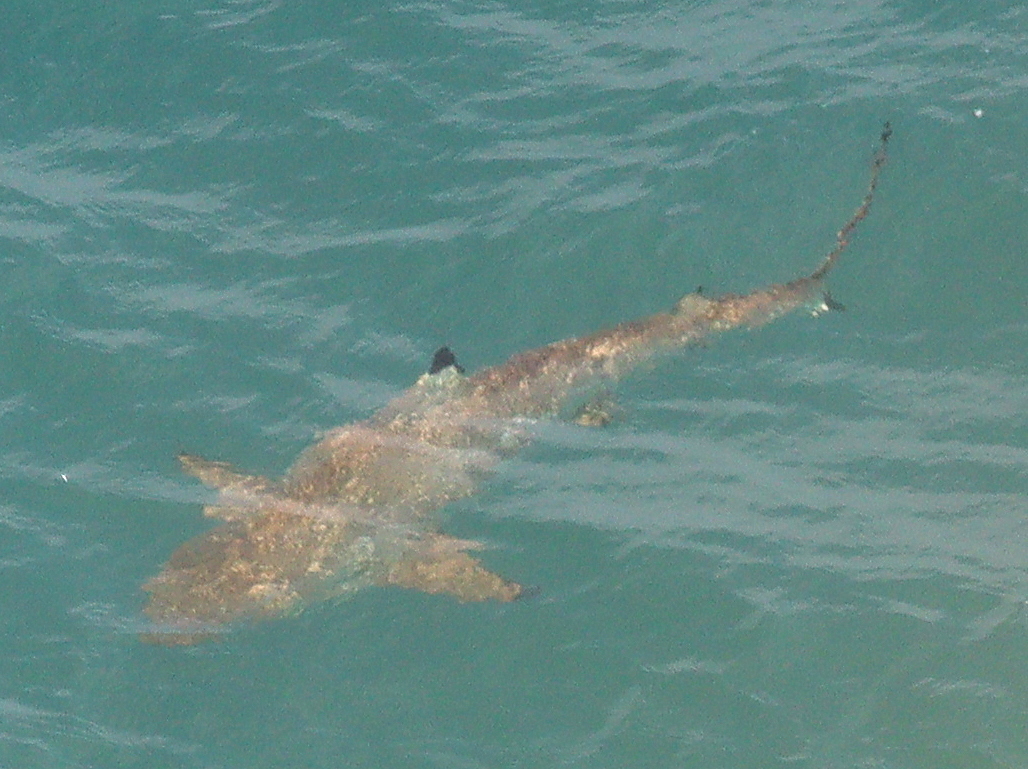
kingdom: Animalia
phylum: Chordata
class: Elasmobranchii
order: Carcharhiniformes
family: Carcharhinidae
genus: Carcharhinus
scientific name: Carcharhinus melanopterus
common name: Blacktip reef shark
